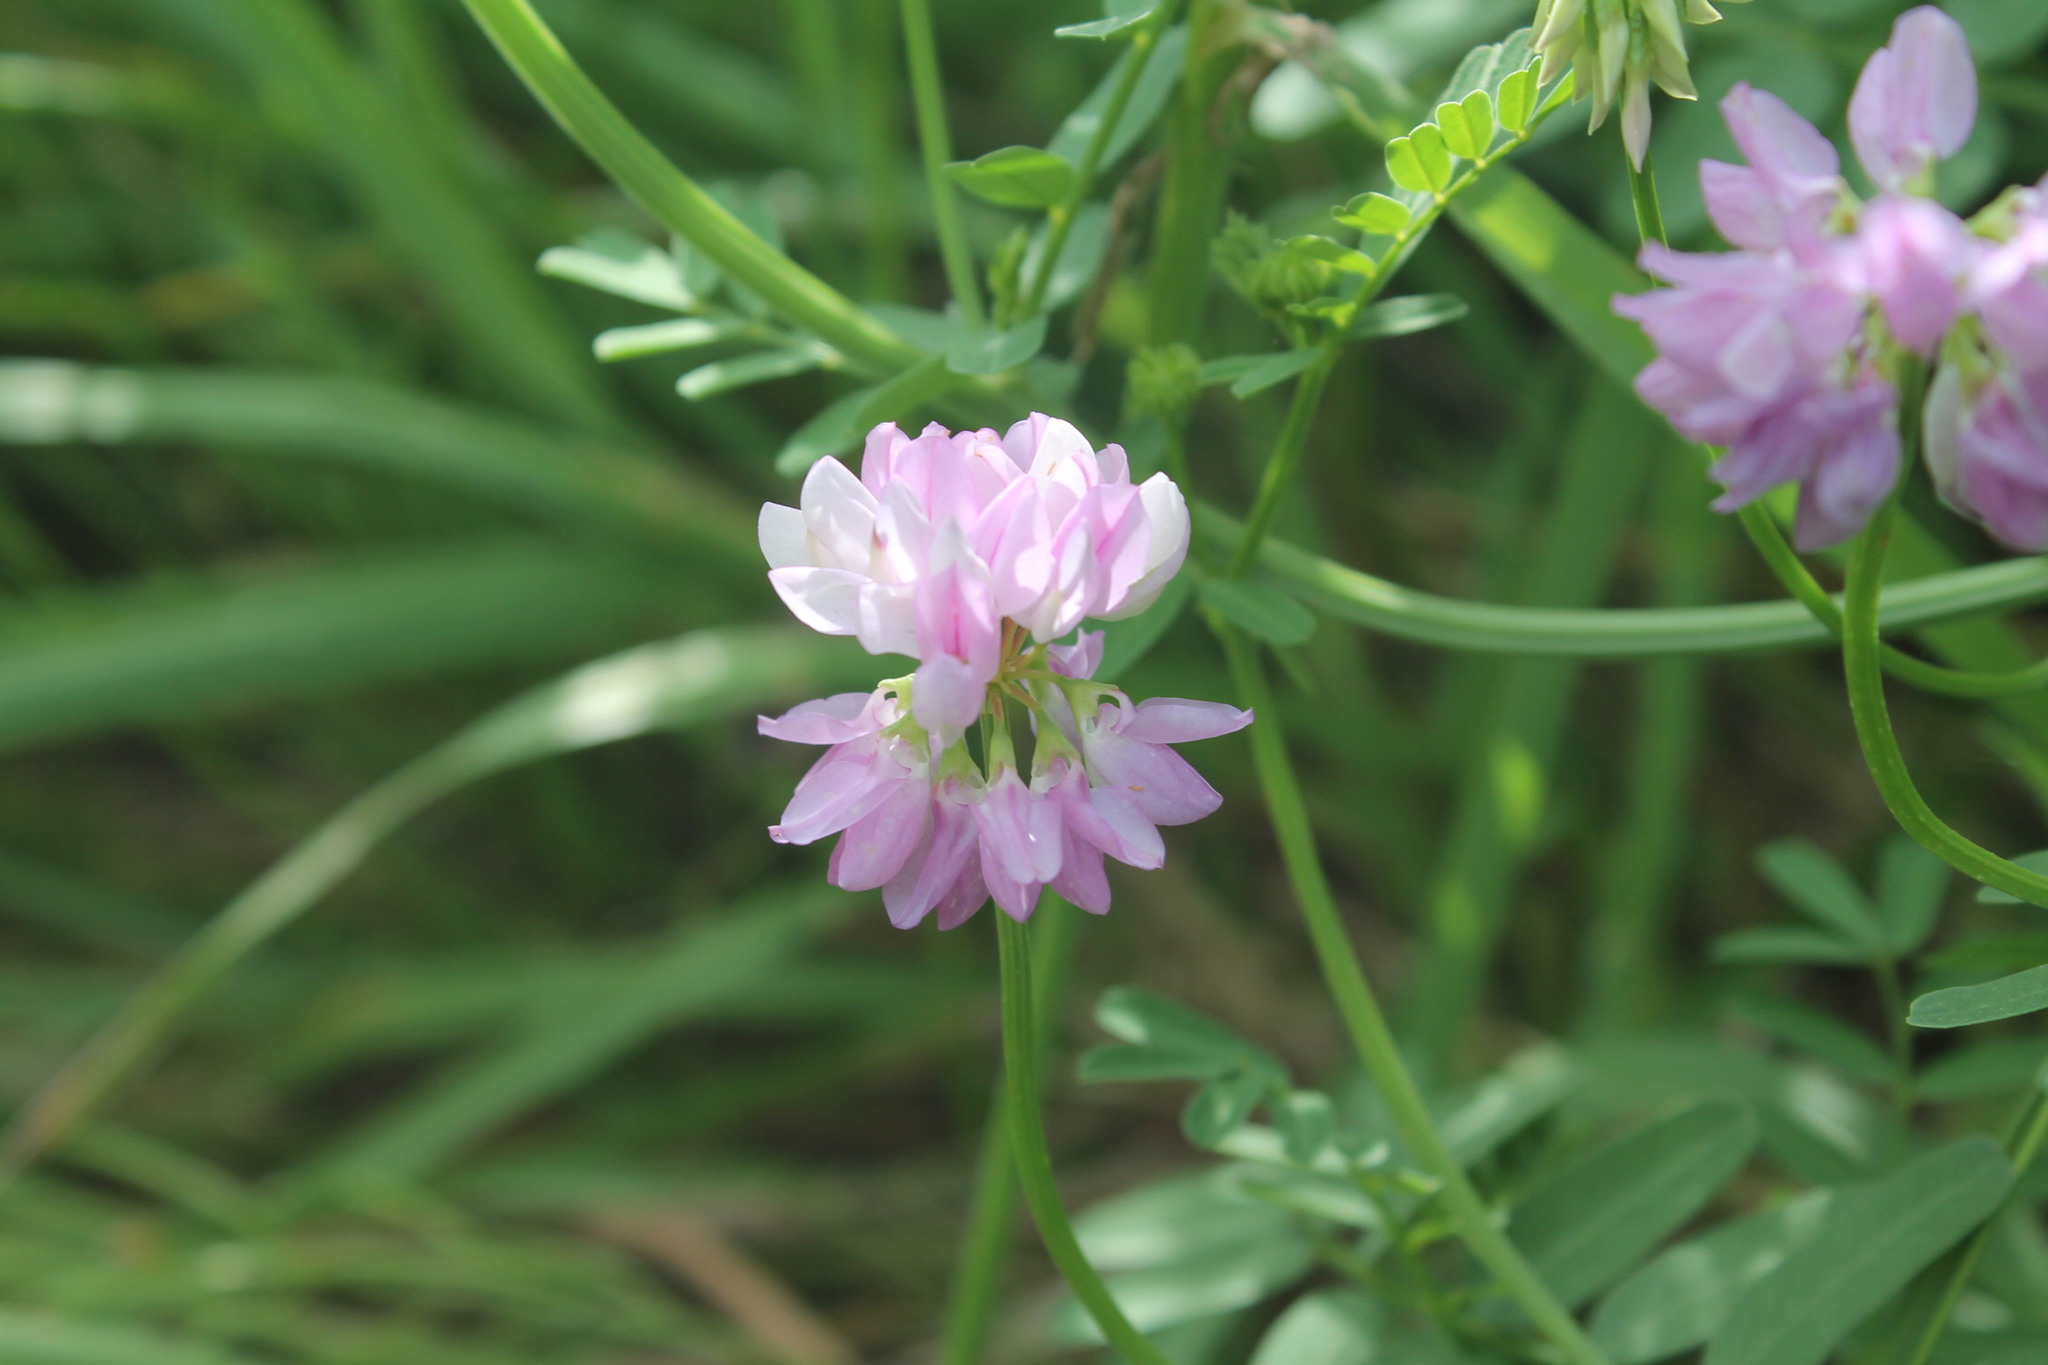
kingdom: Plantae
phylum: Tracheophyta
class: Magnoliopsida
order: Fabales
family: Fabaceae
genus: Coronilla
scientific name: Coronilla varia
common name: Crownvetch
